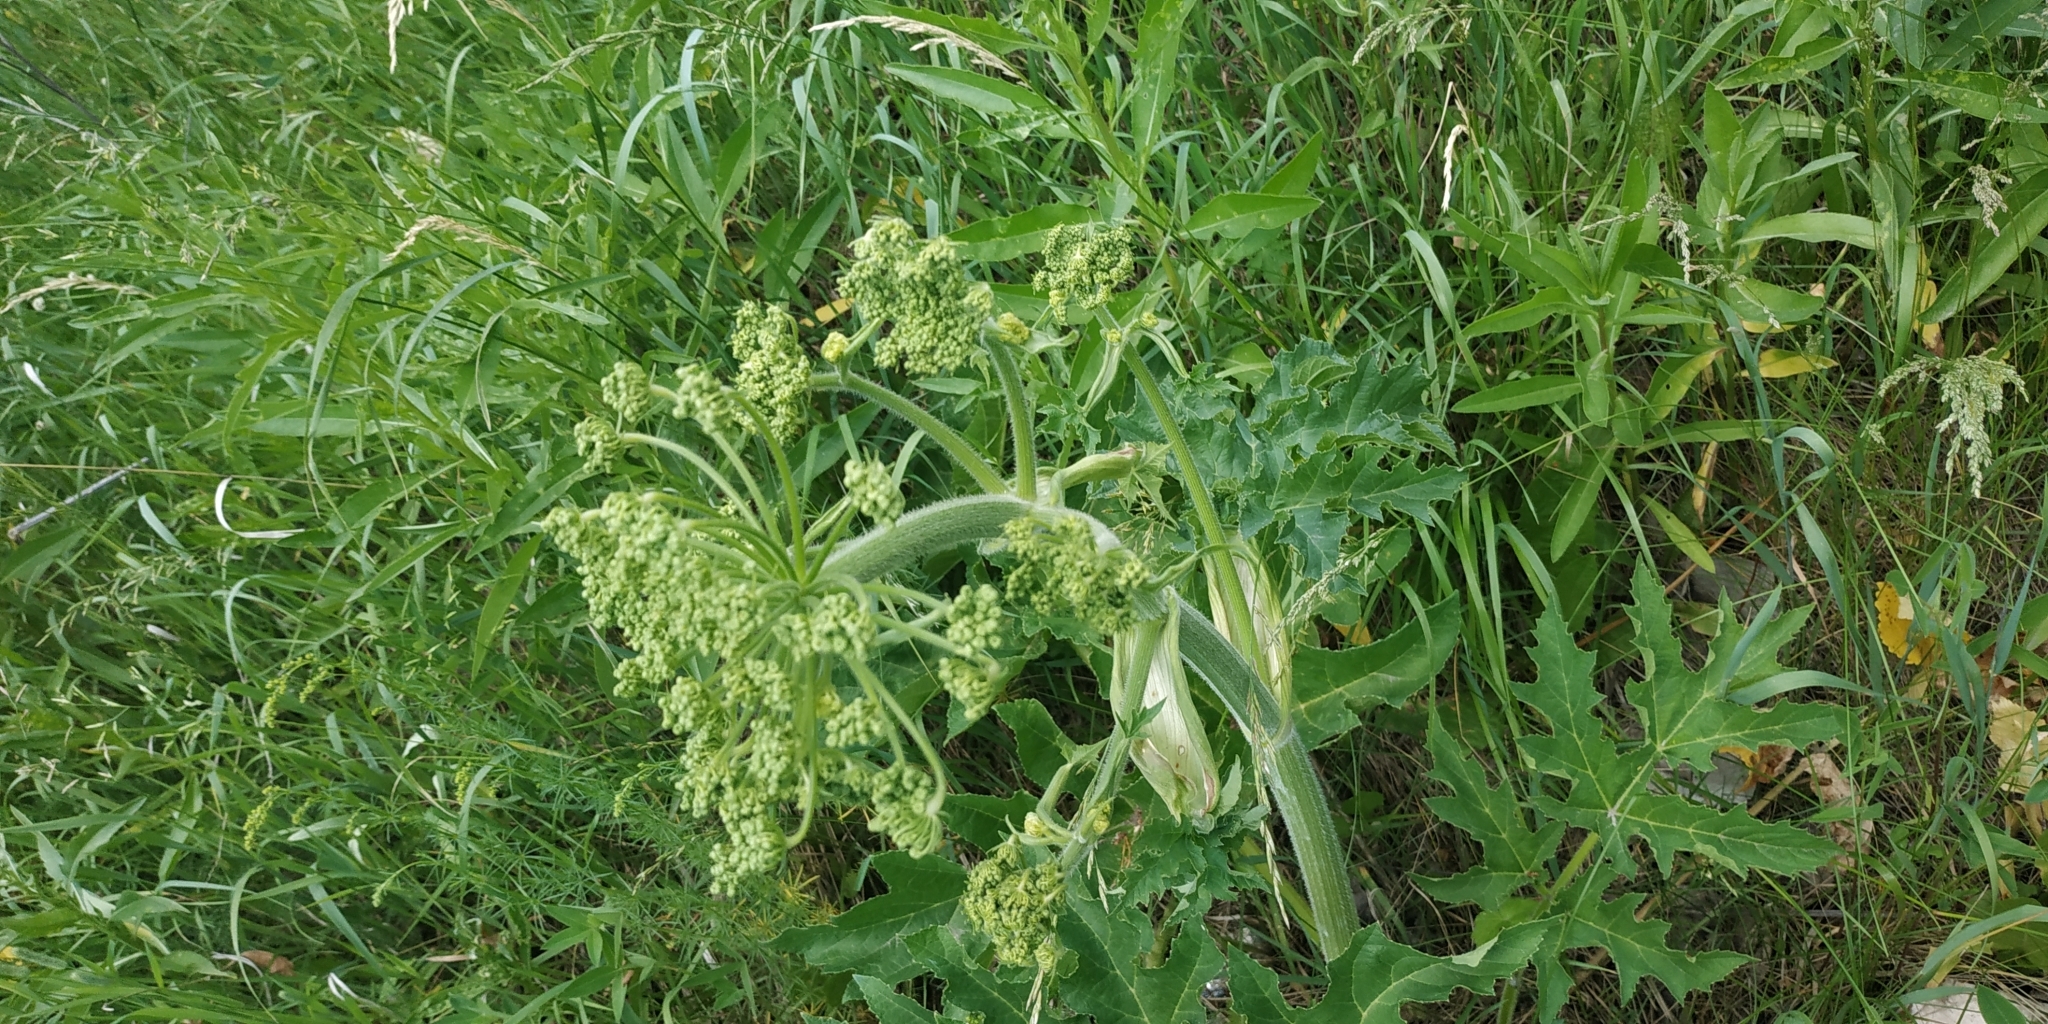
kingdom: Plantae
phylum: Tracheophyta
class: Magnoliopsida
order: Apiales
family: Apiaceae
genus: Heracleum
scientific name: Heracleum sphondylium
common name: Hogweed
